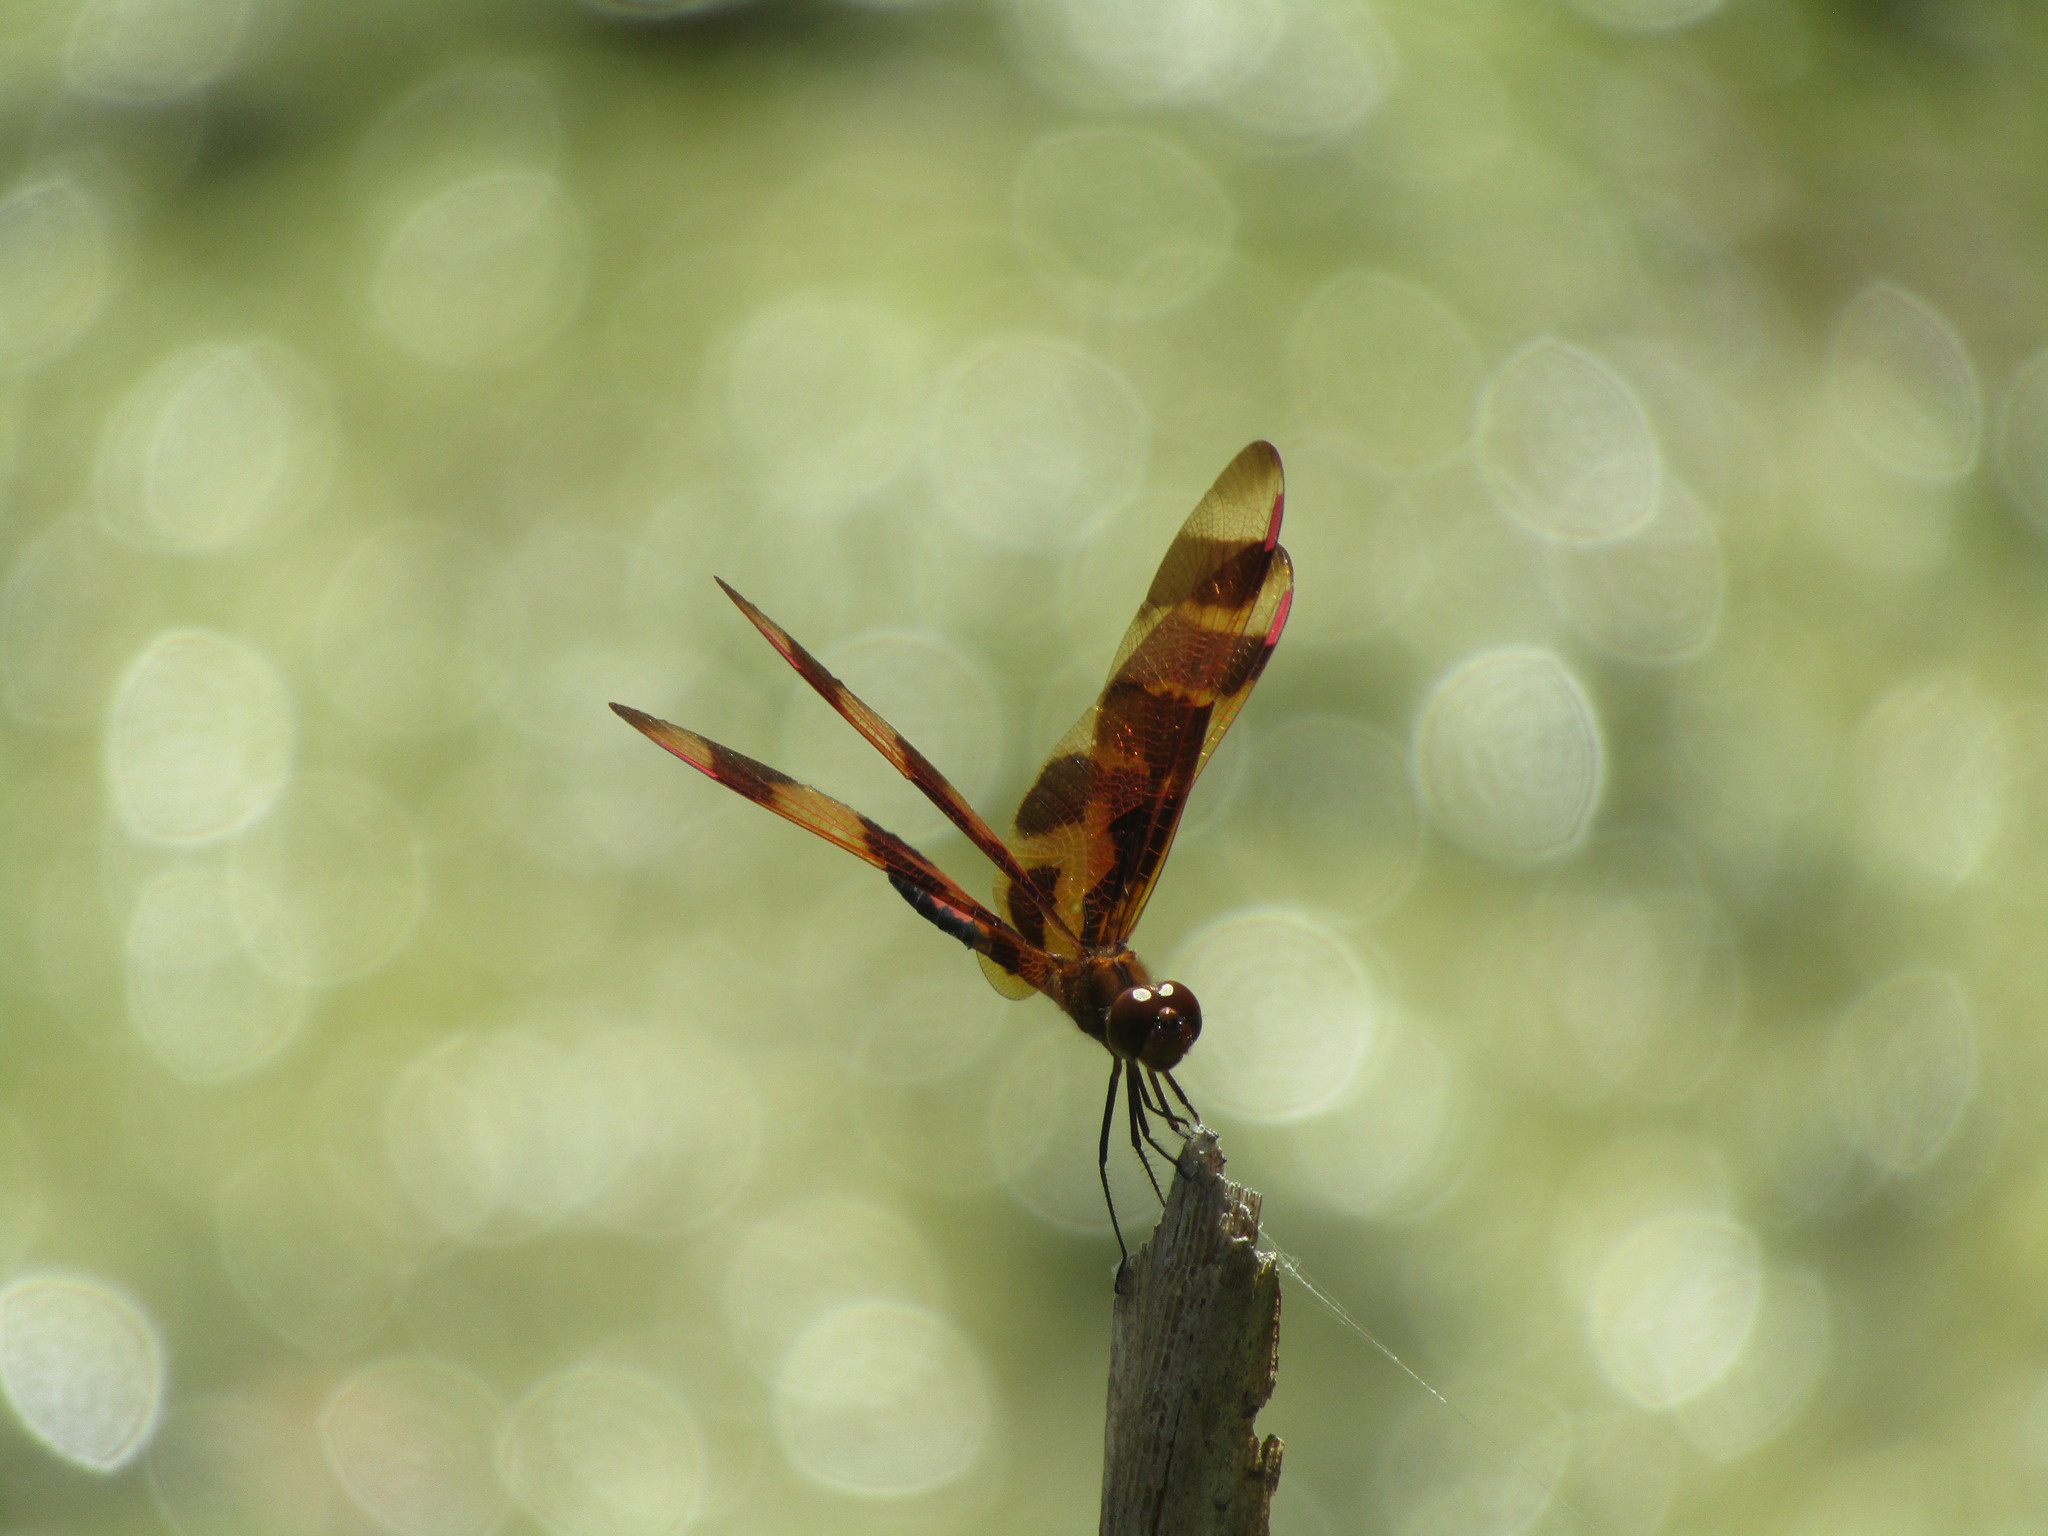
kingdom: Animalia
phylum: Arthropoda
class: Insecta
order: Odonata
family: Libellulidae
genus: Celithemis
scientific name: Celithemis eponina
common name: Halloween pennant
